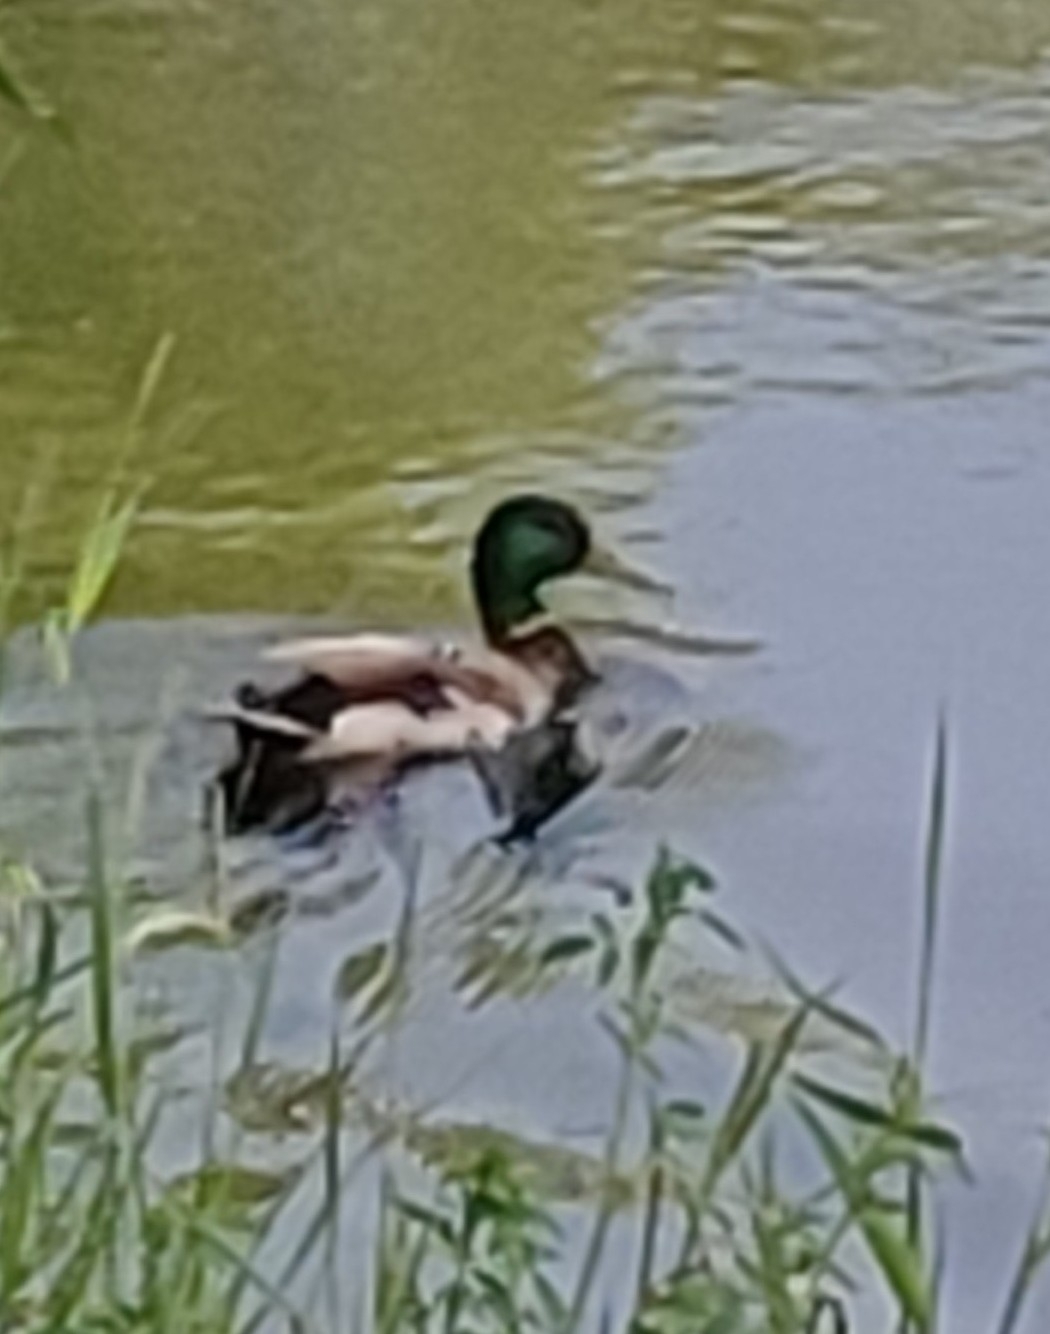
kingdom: Animalia
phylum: Chordata
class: Aves
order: Anseriformes
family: Anatidae
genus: Anas
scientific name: Anas platyrhynchos
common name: Mallard
